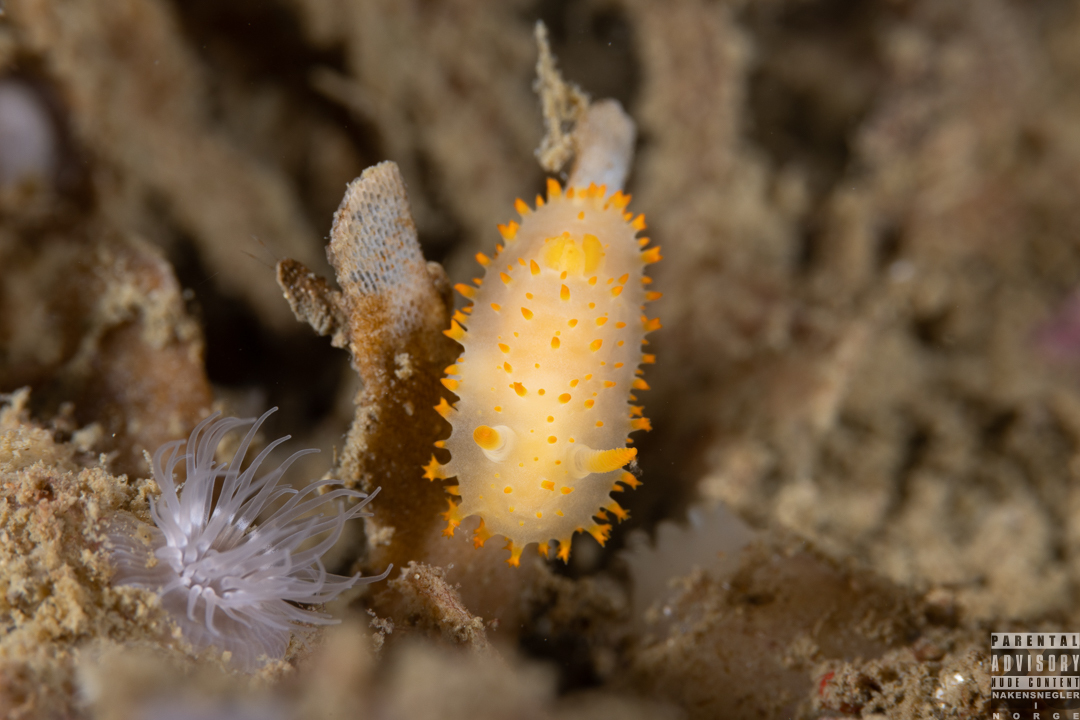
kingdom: Animalia
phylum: Mollusca
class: Gastropoda
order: Nudibranchia
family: Polyceridae
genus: Crimora
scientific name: Crimora papillata
